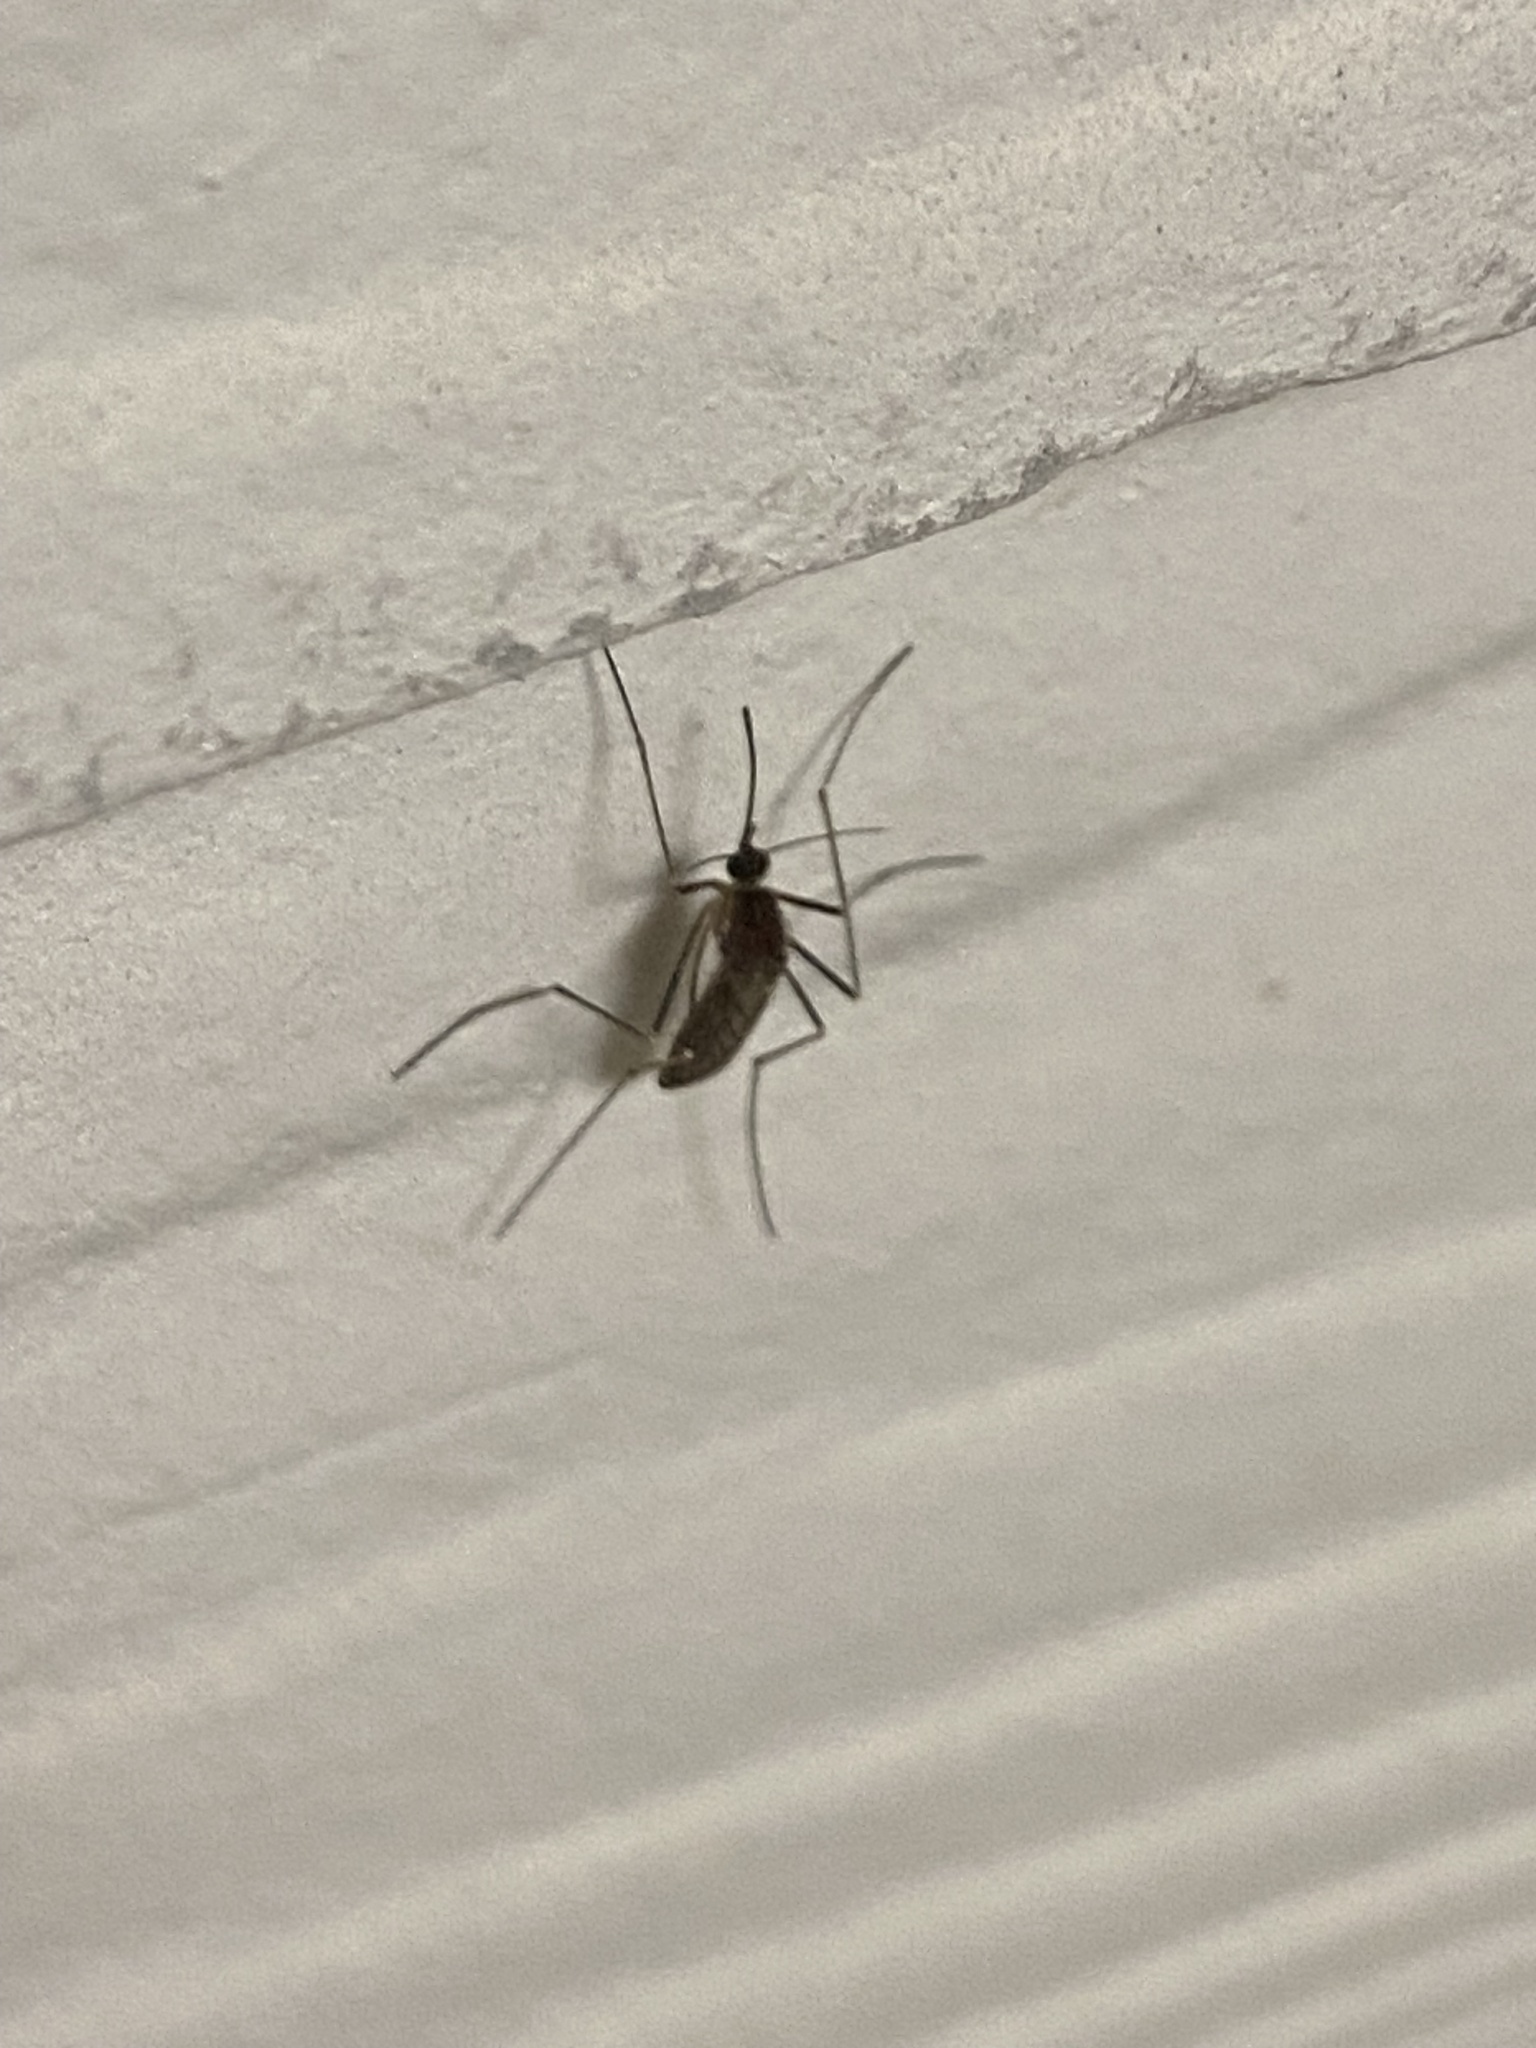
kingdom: Animalia
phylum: Arthropoda
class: Insecta
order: Diptera
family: Culicidae
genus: Culiseta
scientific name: Culiseta inornata
